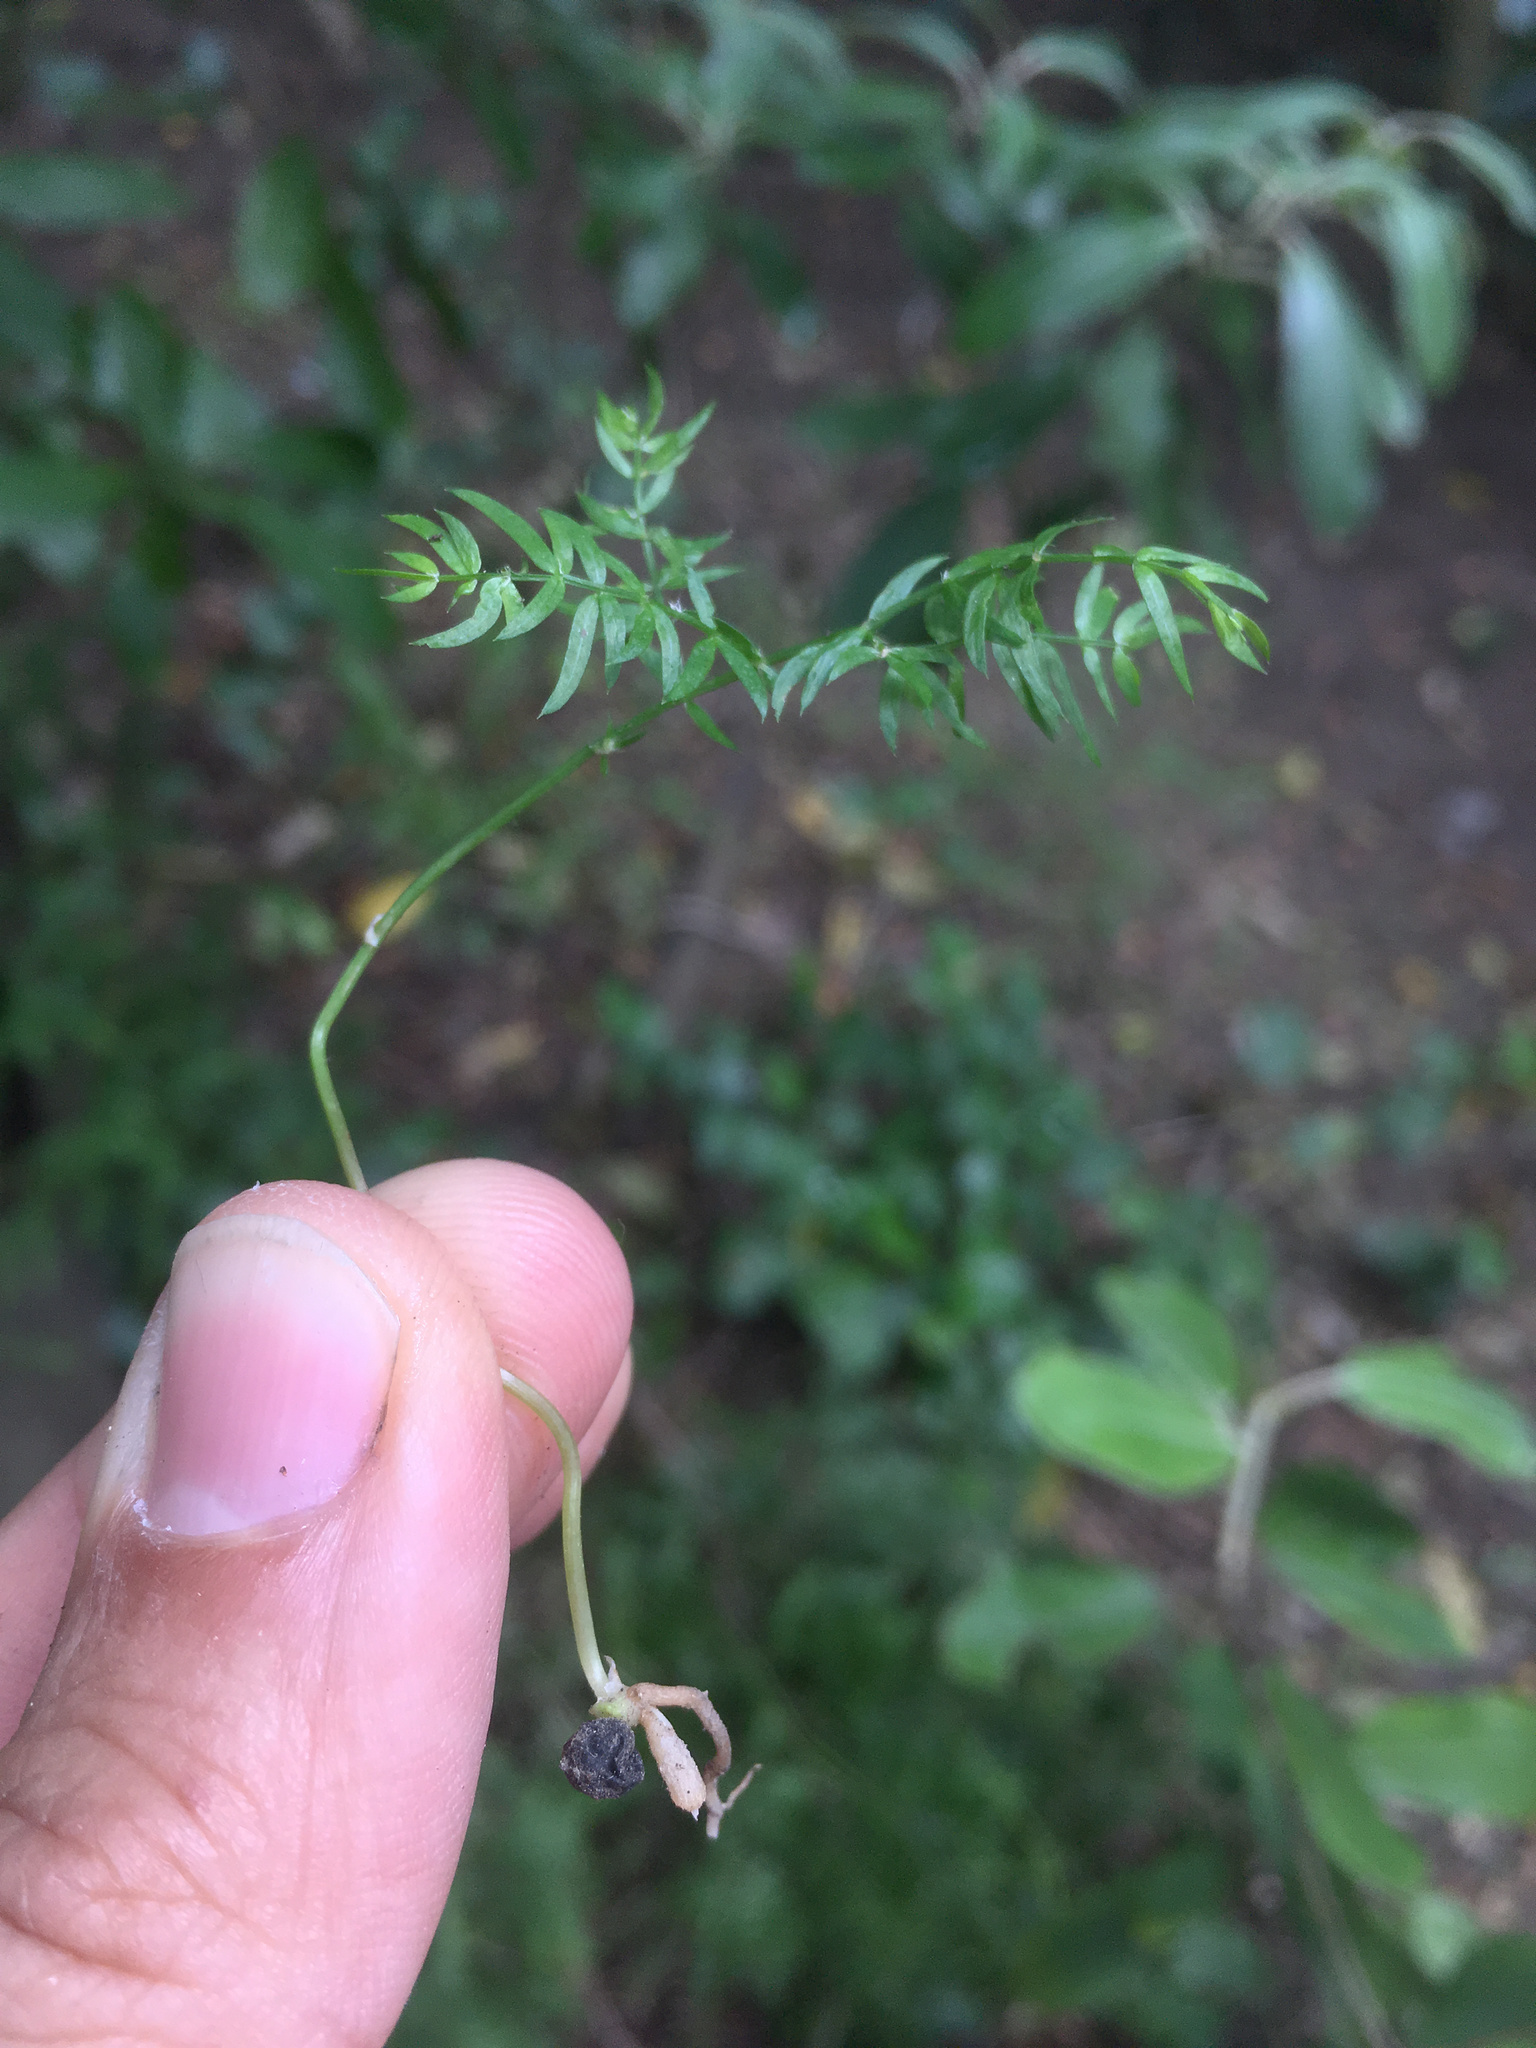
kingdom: Plantae
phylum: Tracheophyta
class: Liliopsida
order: Asparagales
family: Asparagaceae
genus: Asparagus
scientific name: Asparagus scandens
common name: Asparagus-fern
